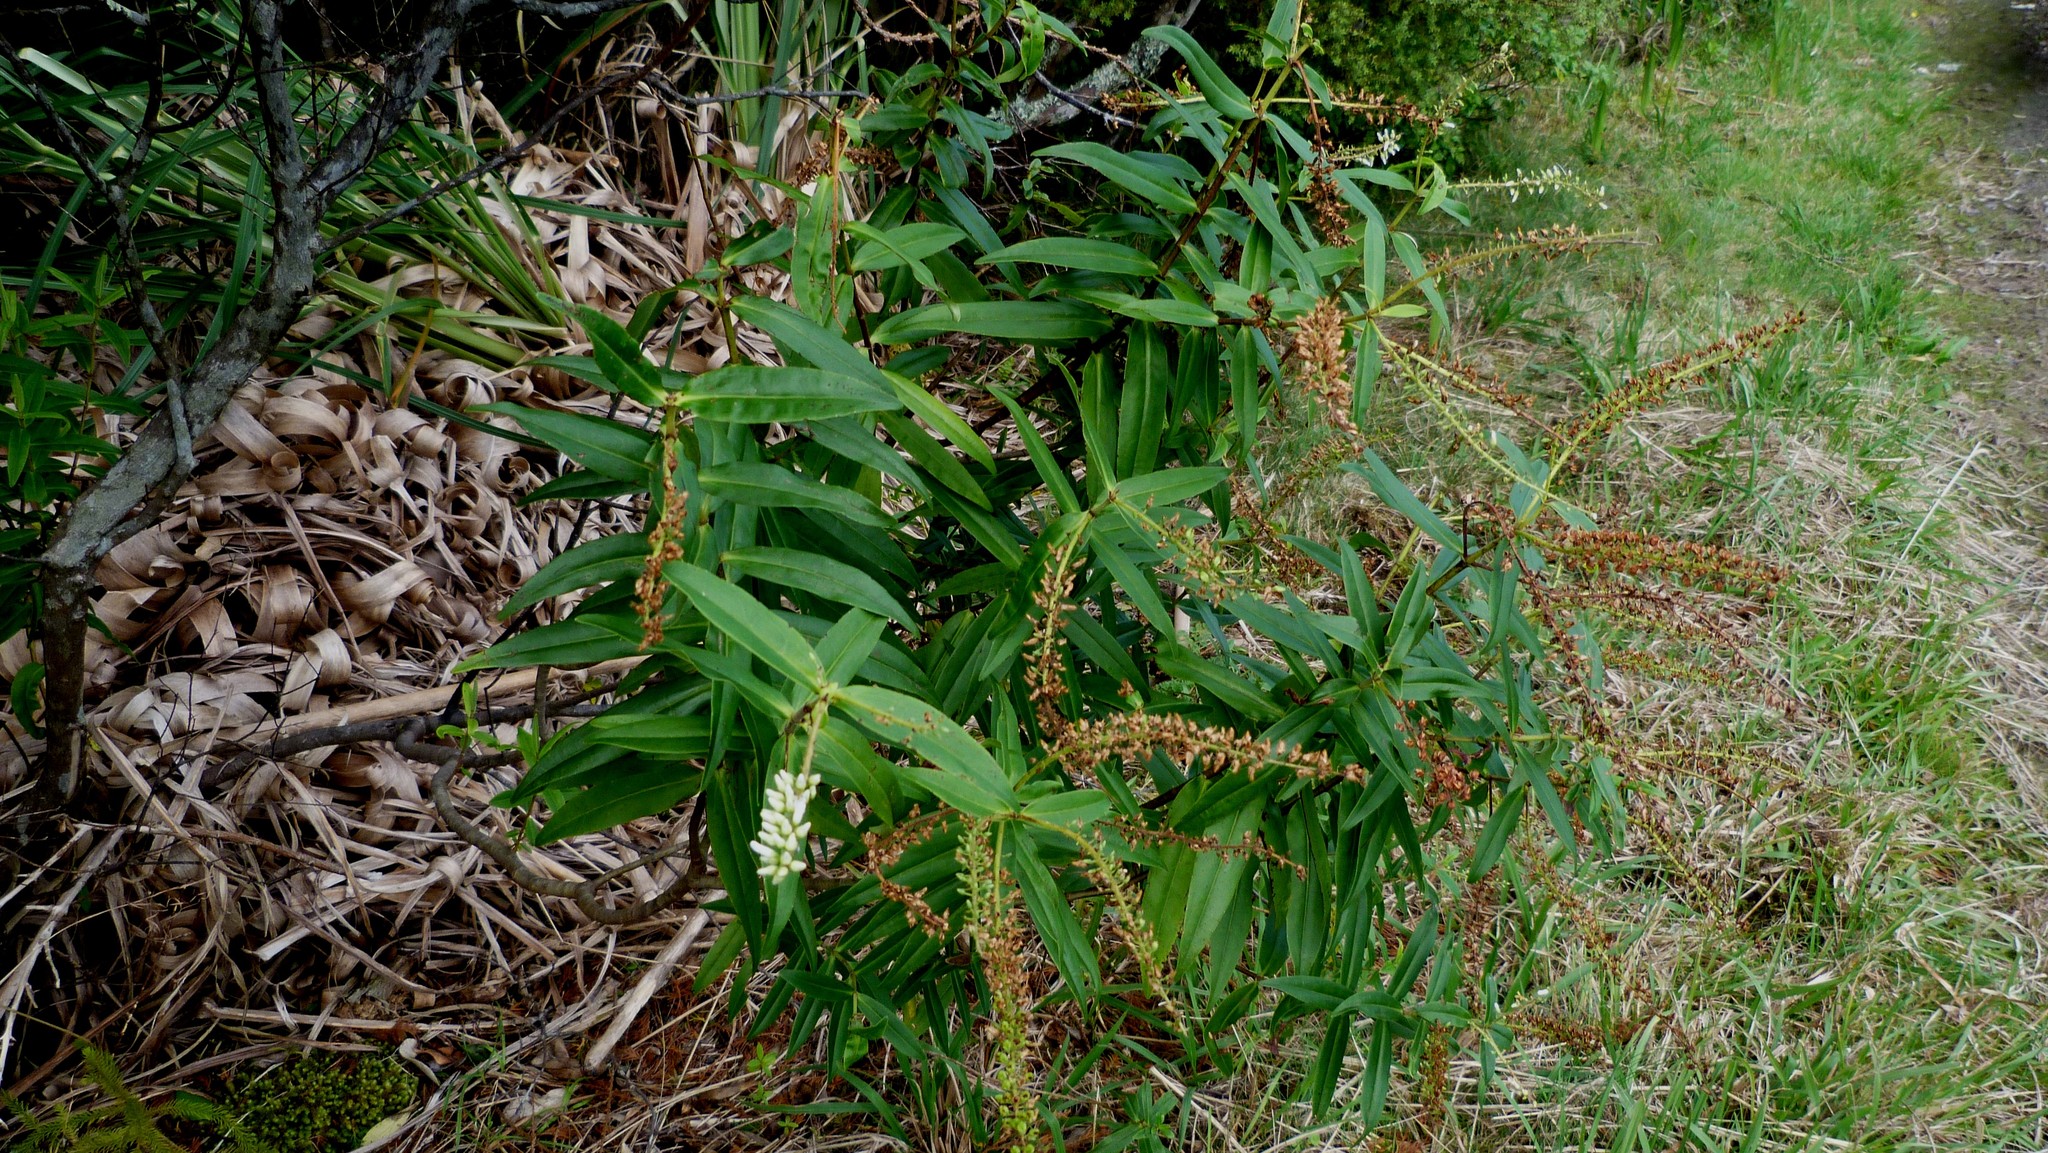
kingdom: Plantae
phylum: Tracheophyta
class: Magnoliopsida
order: Lamiales
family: Plantaginaceae
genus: Veronica
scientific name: Veronica stricta
